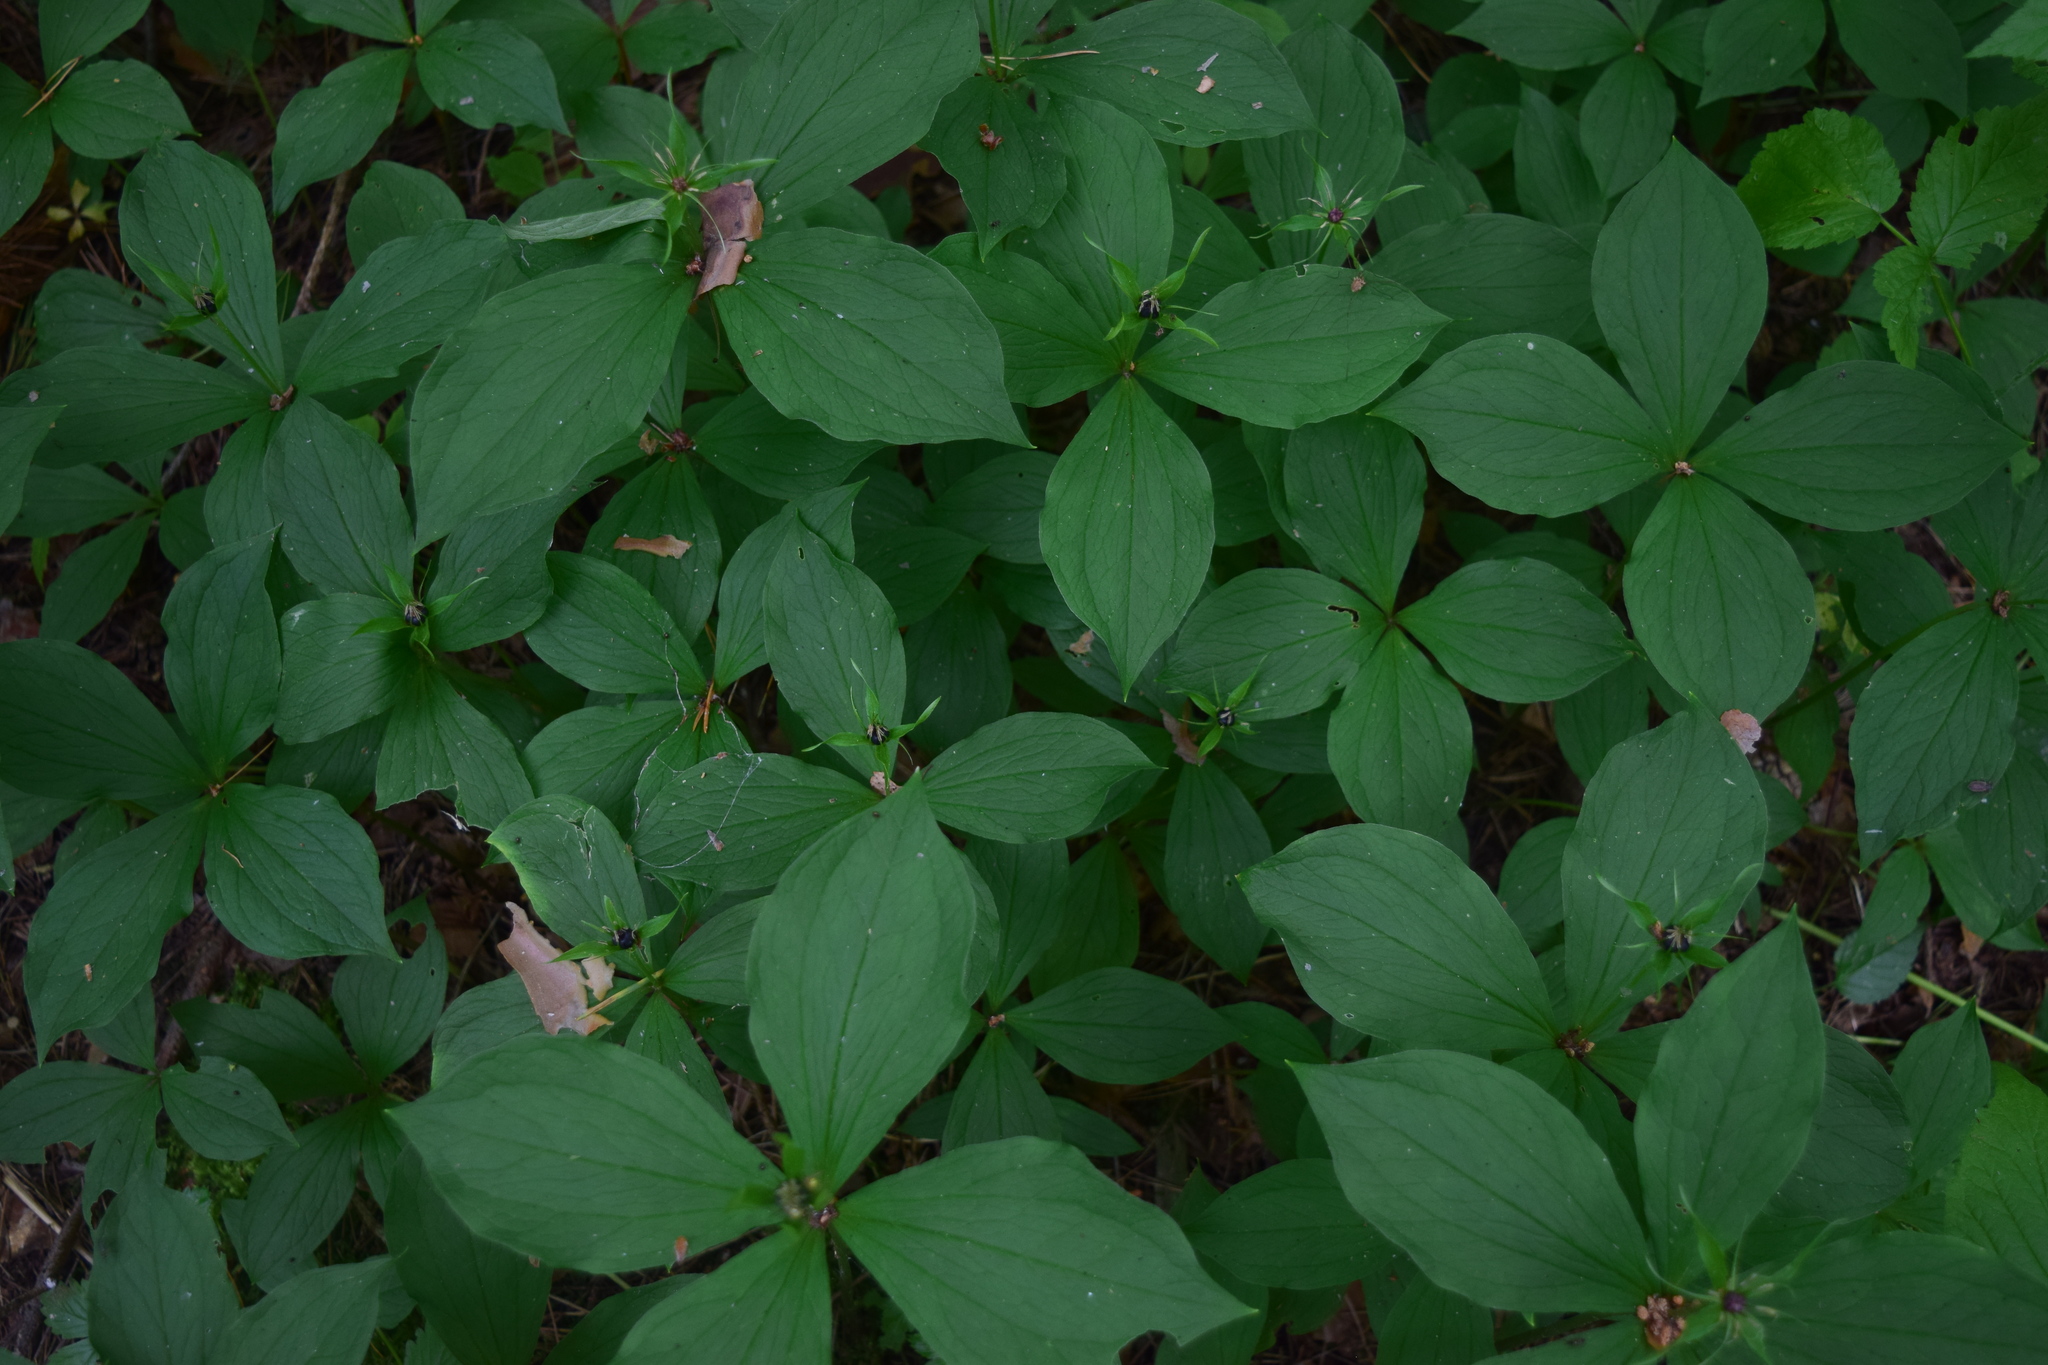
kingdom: Plantae
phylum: Tracheophyta
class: Liliopsida
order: Liliales
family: Melanthiaceae
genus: Paris
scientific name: Paris quadrifolia
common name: Herb-paris
